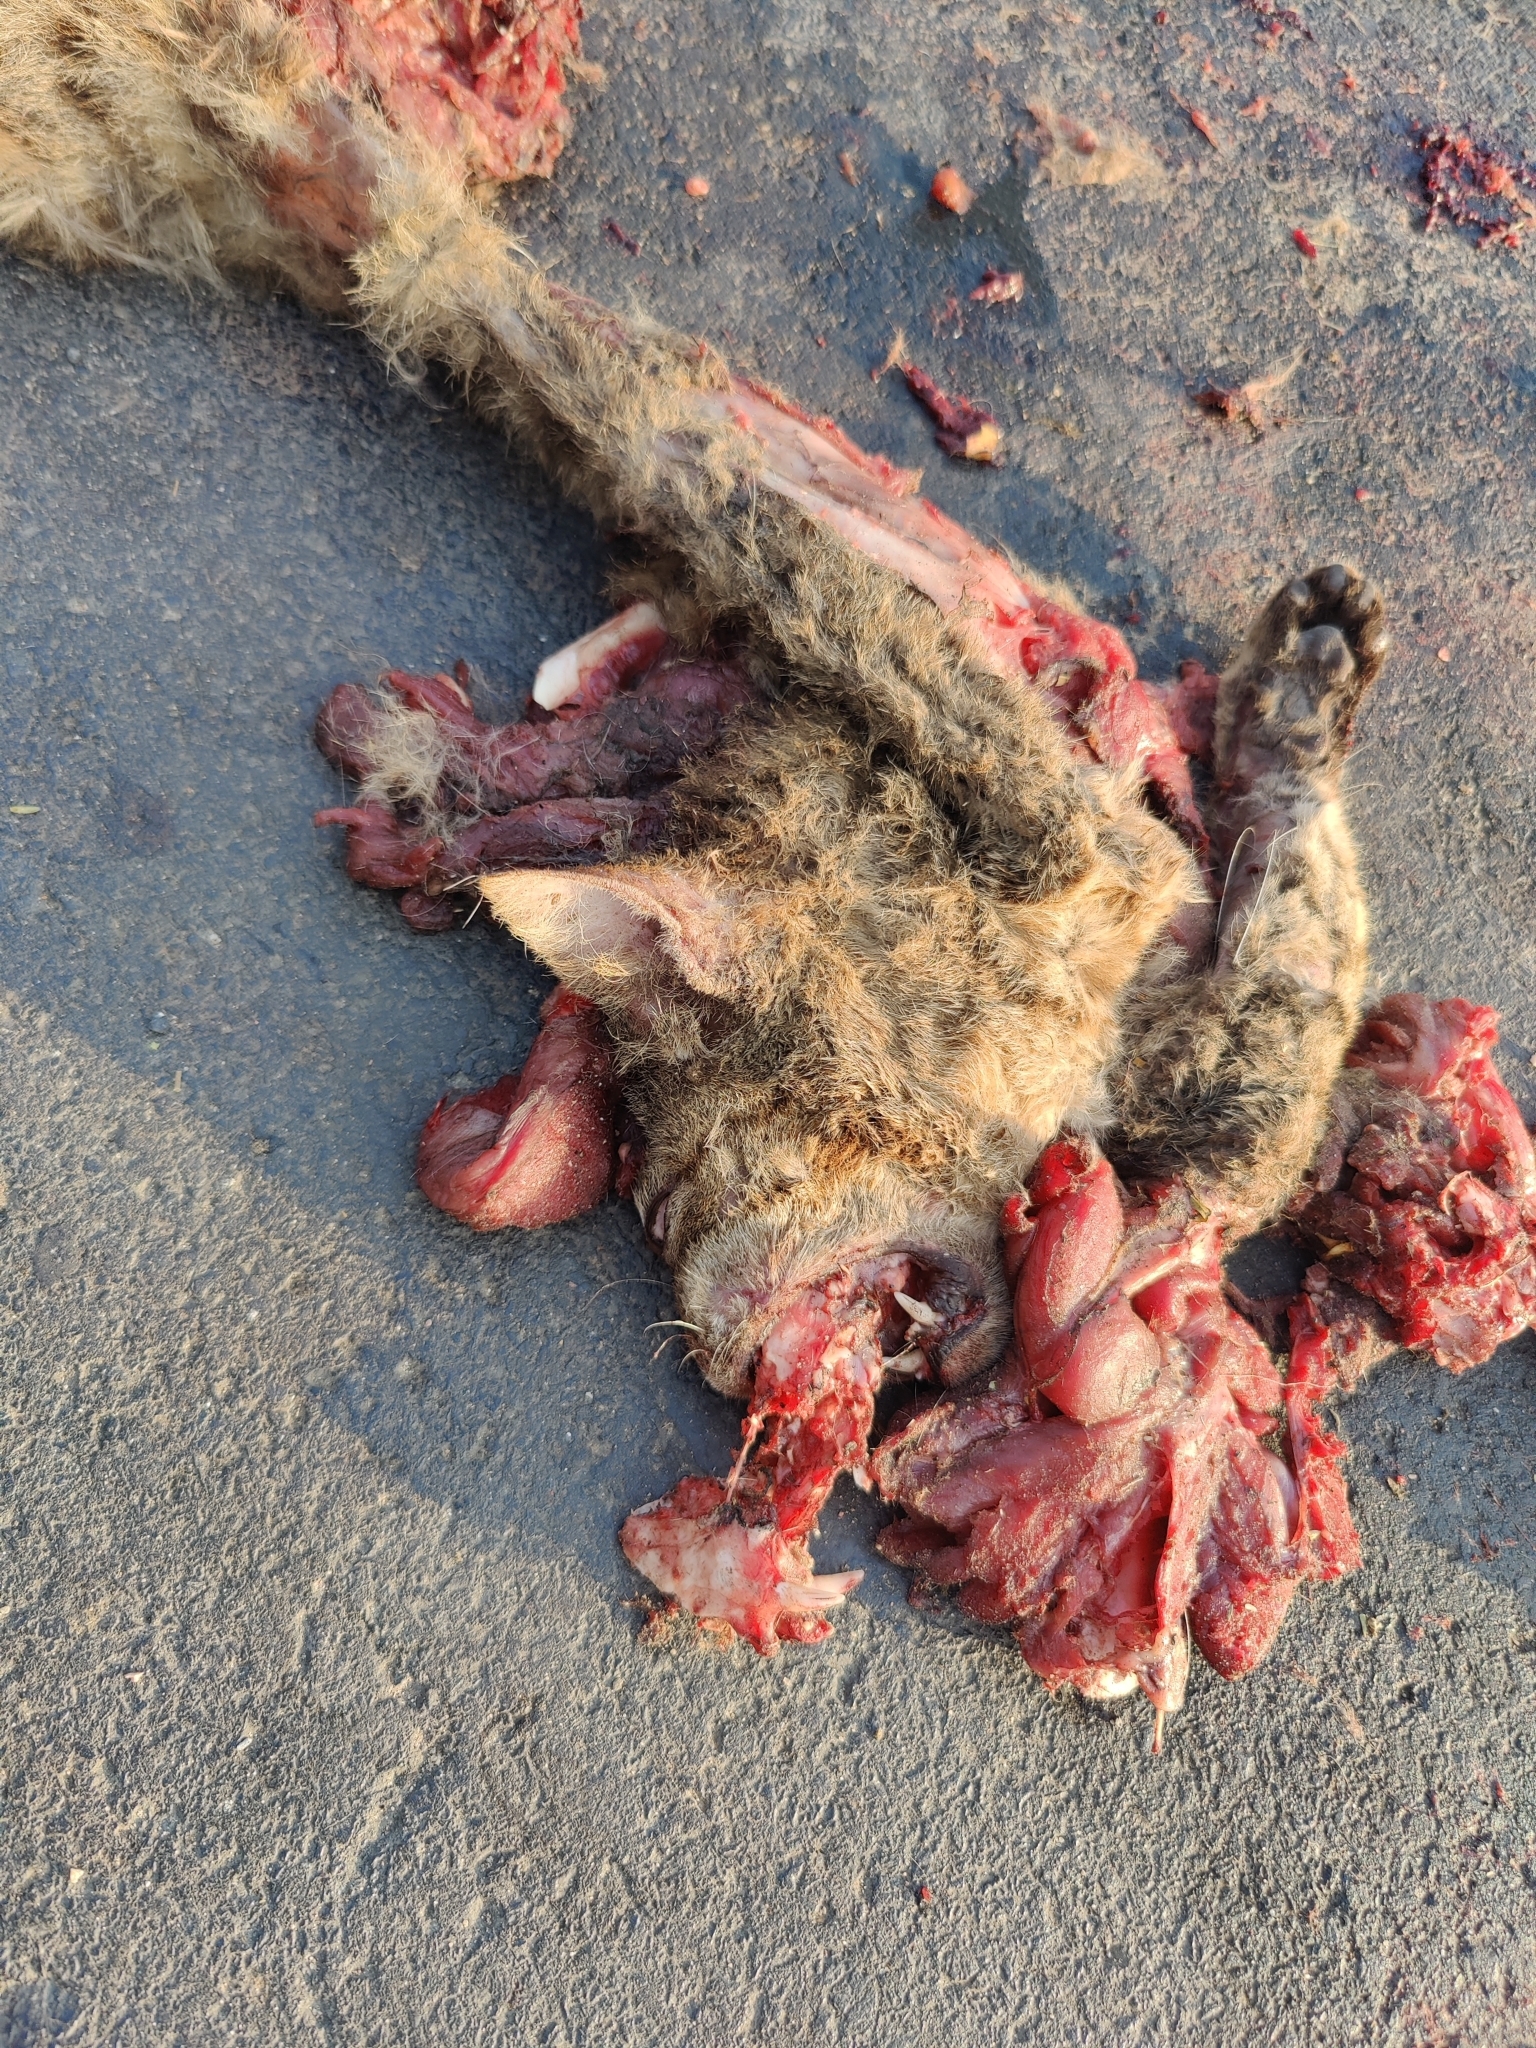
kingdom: Animalia
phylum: Chordata
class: Mammalia
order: Carnivora
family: Felidae
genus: Felis
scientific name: Felis silvestris
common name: Wildcat
